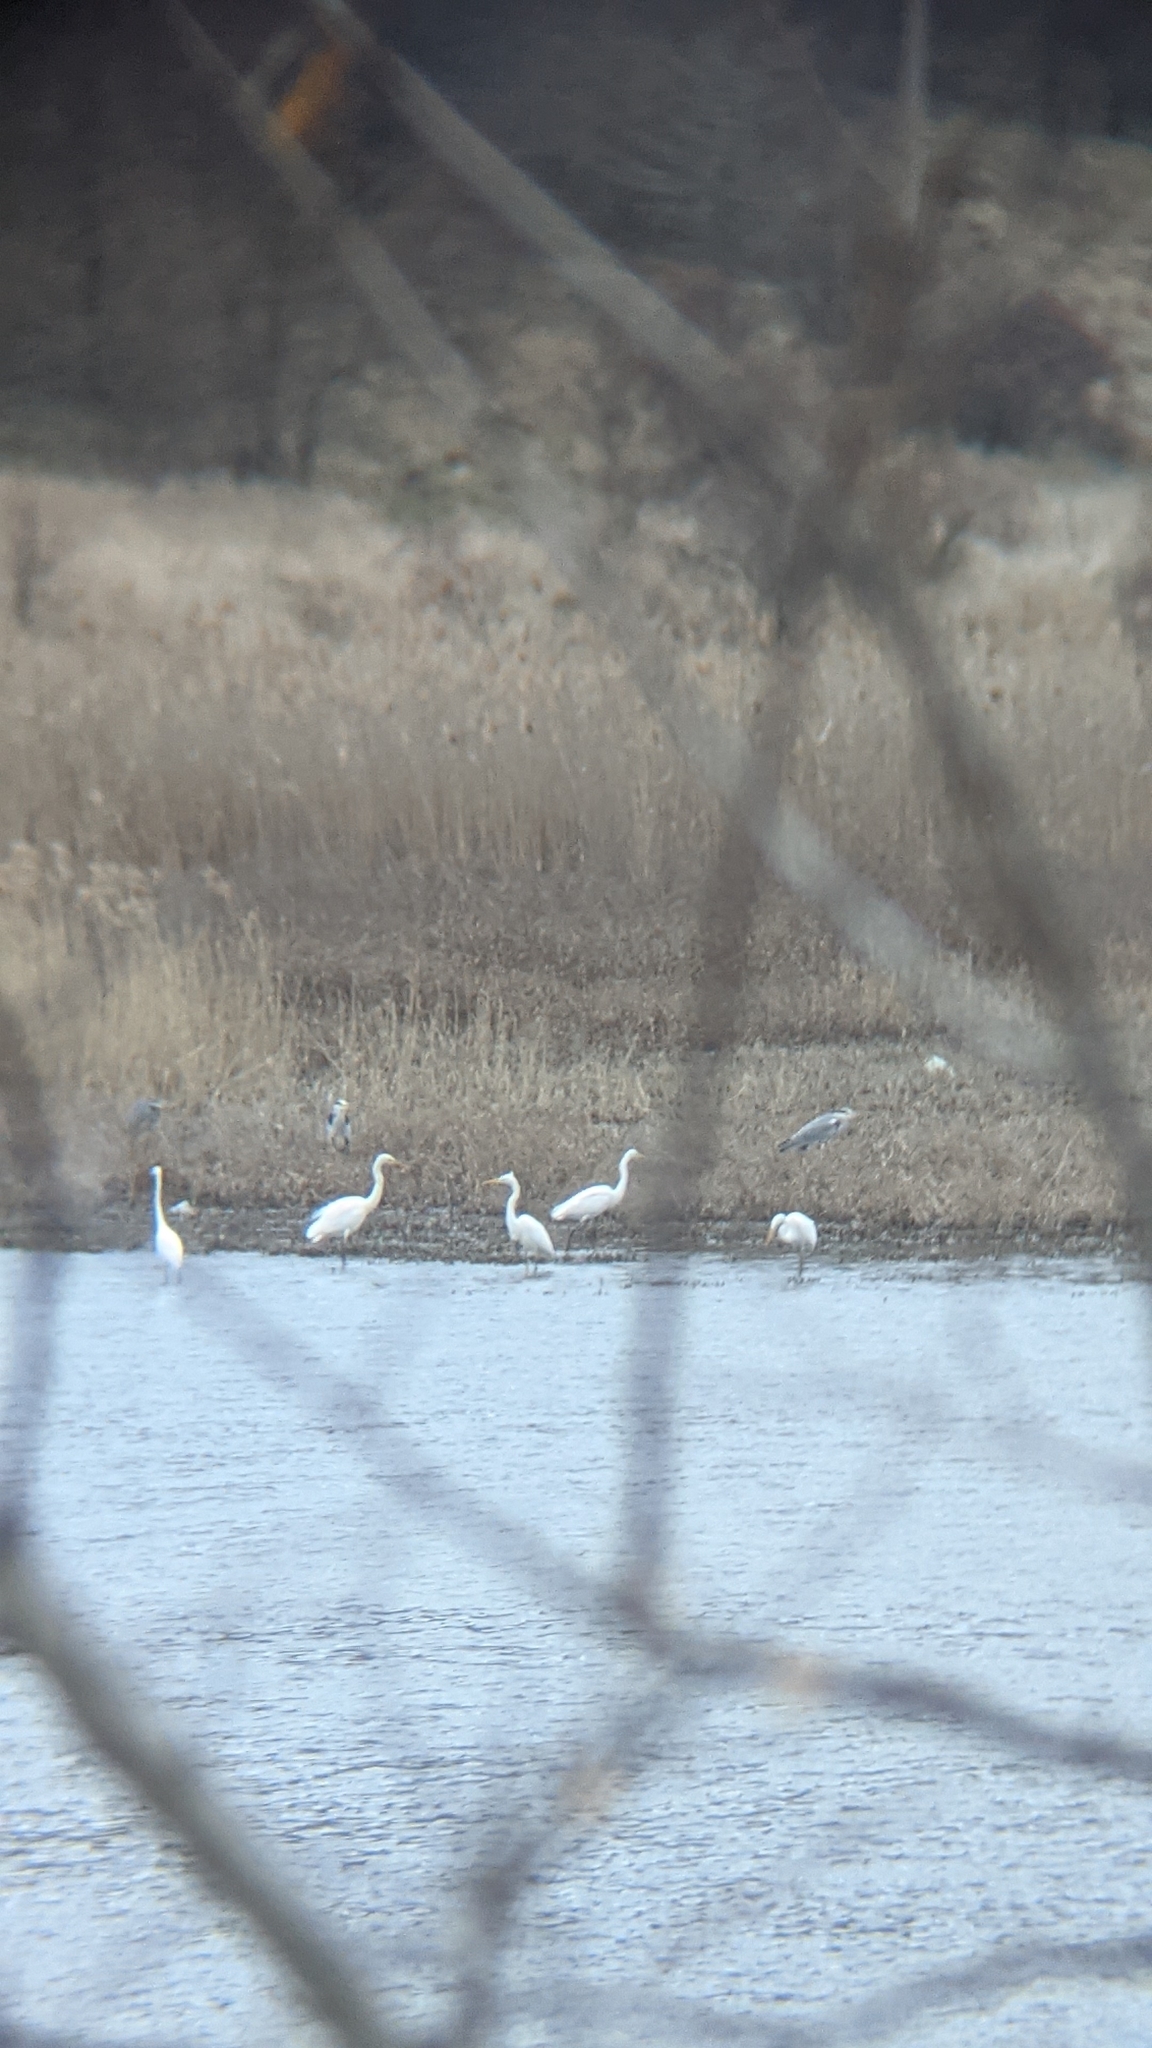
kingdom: Animalia
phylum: Chordata
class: Aves
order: Pelecaniformes
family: Ardeidae
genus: Ardea
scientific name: Ardea cinerea
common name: Grey heron
